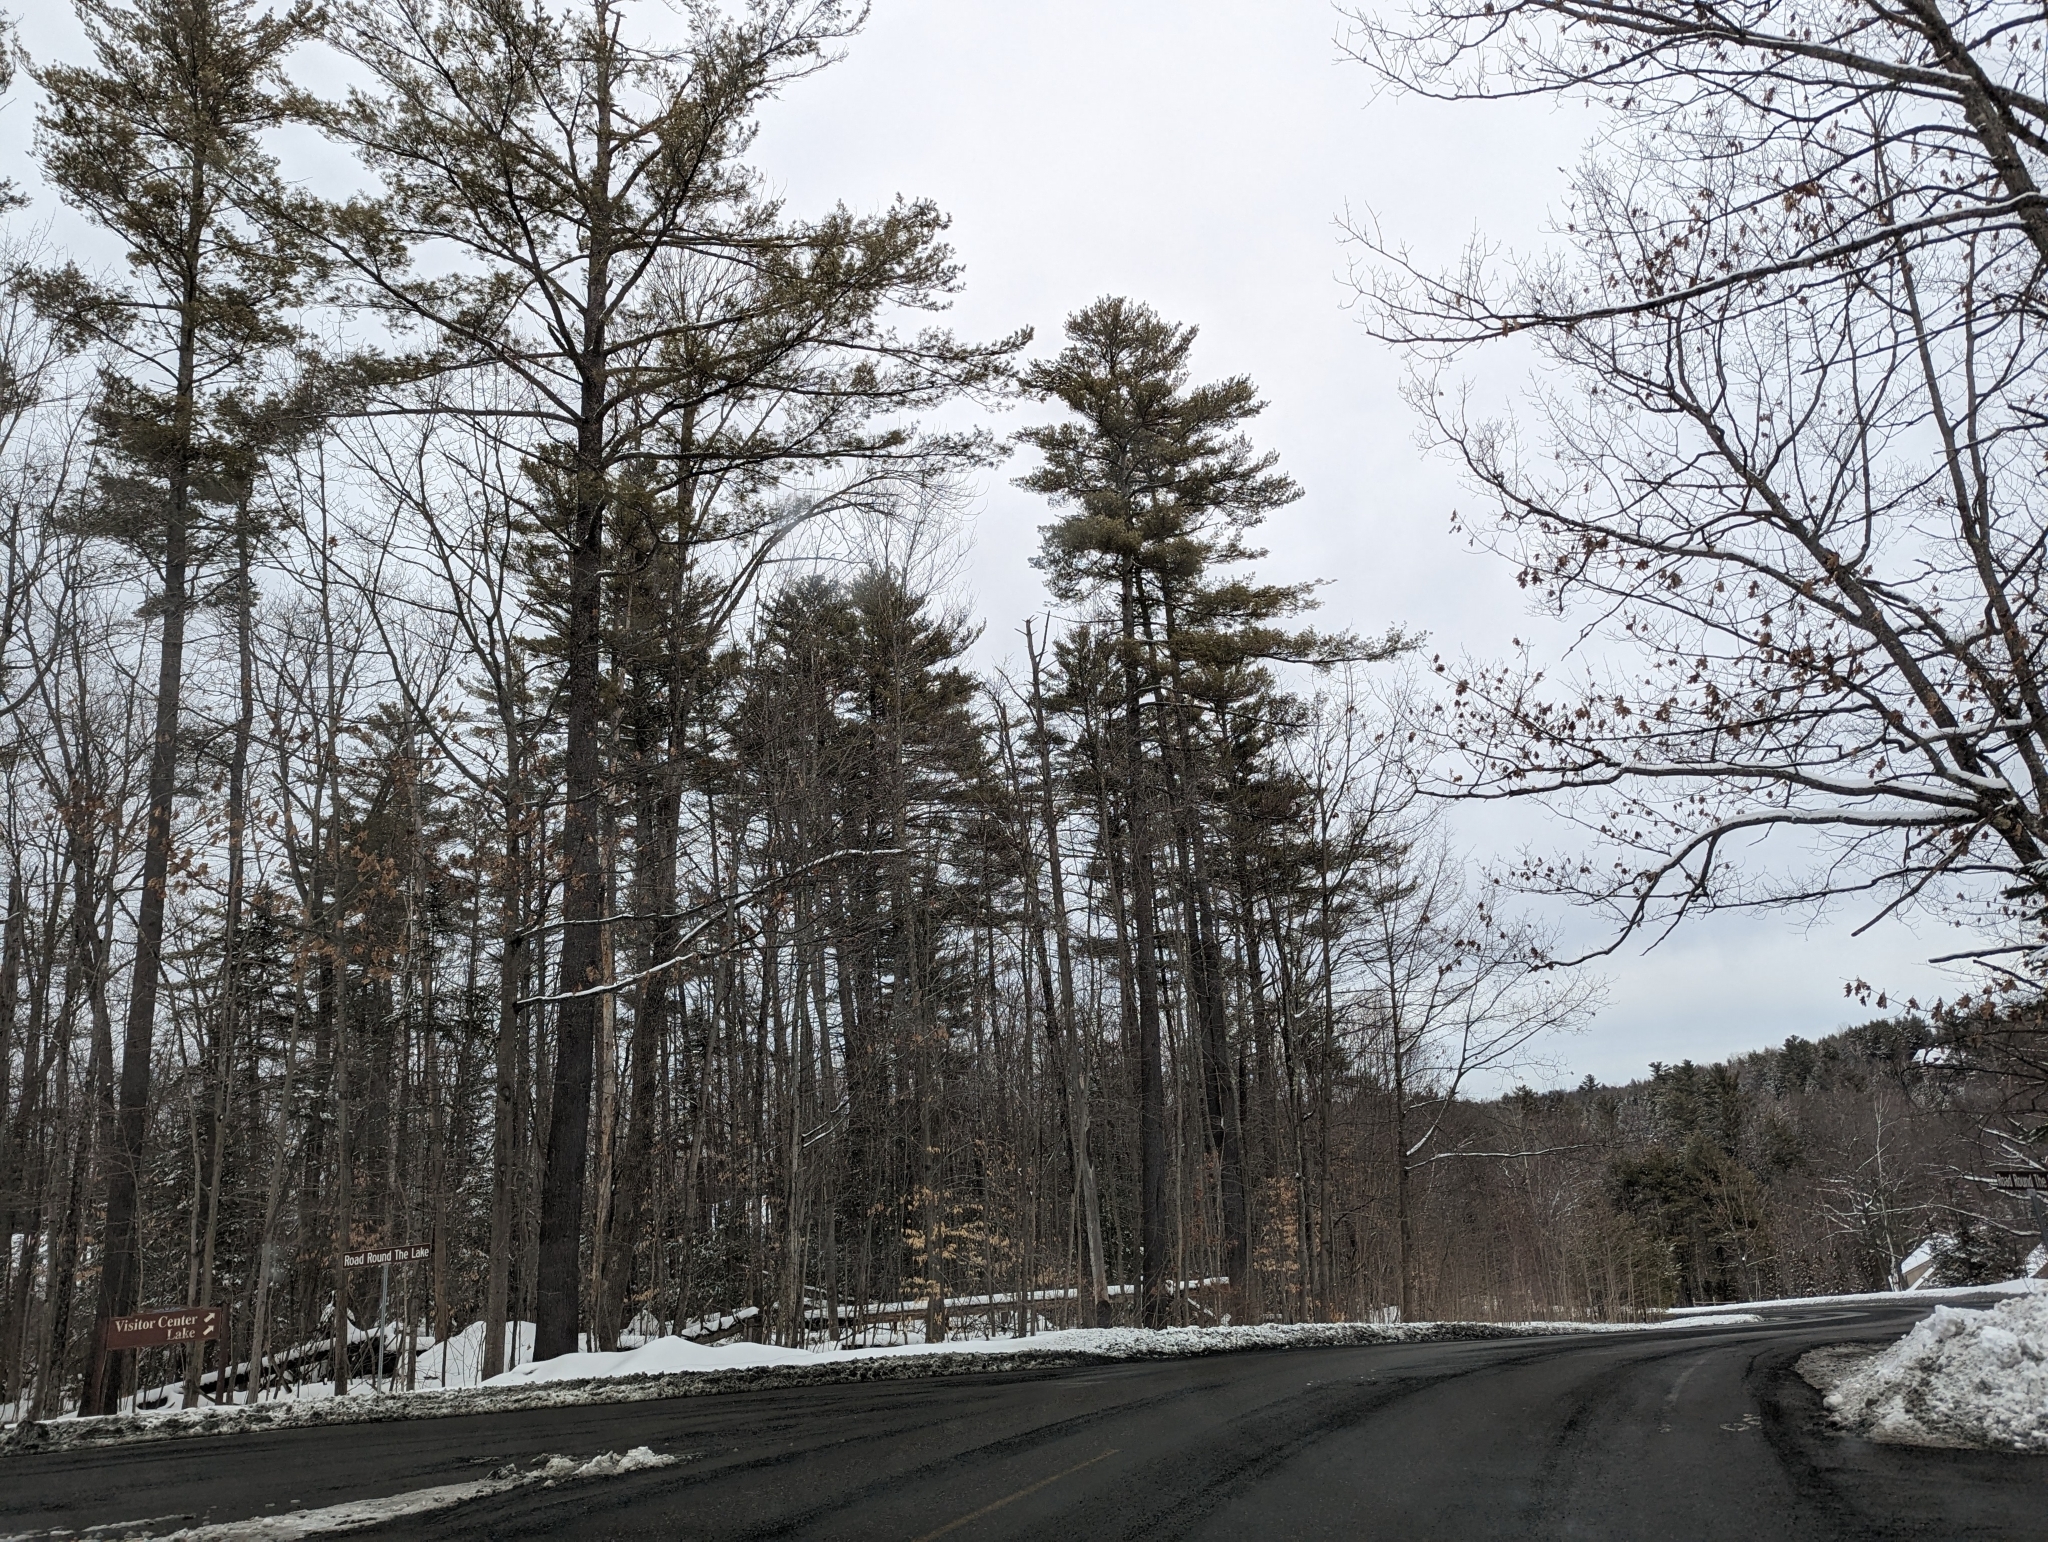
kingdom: Plantae
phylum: Tracheophyta
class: Pinopsida
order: Pinales
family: Pinaceae
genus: Pinus
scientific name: Pinus strobus
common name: Weymouth pine
